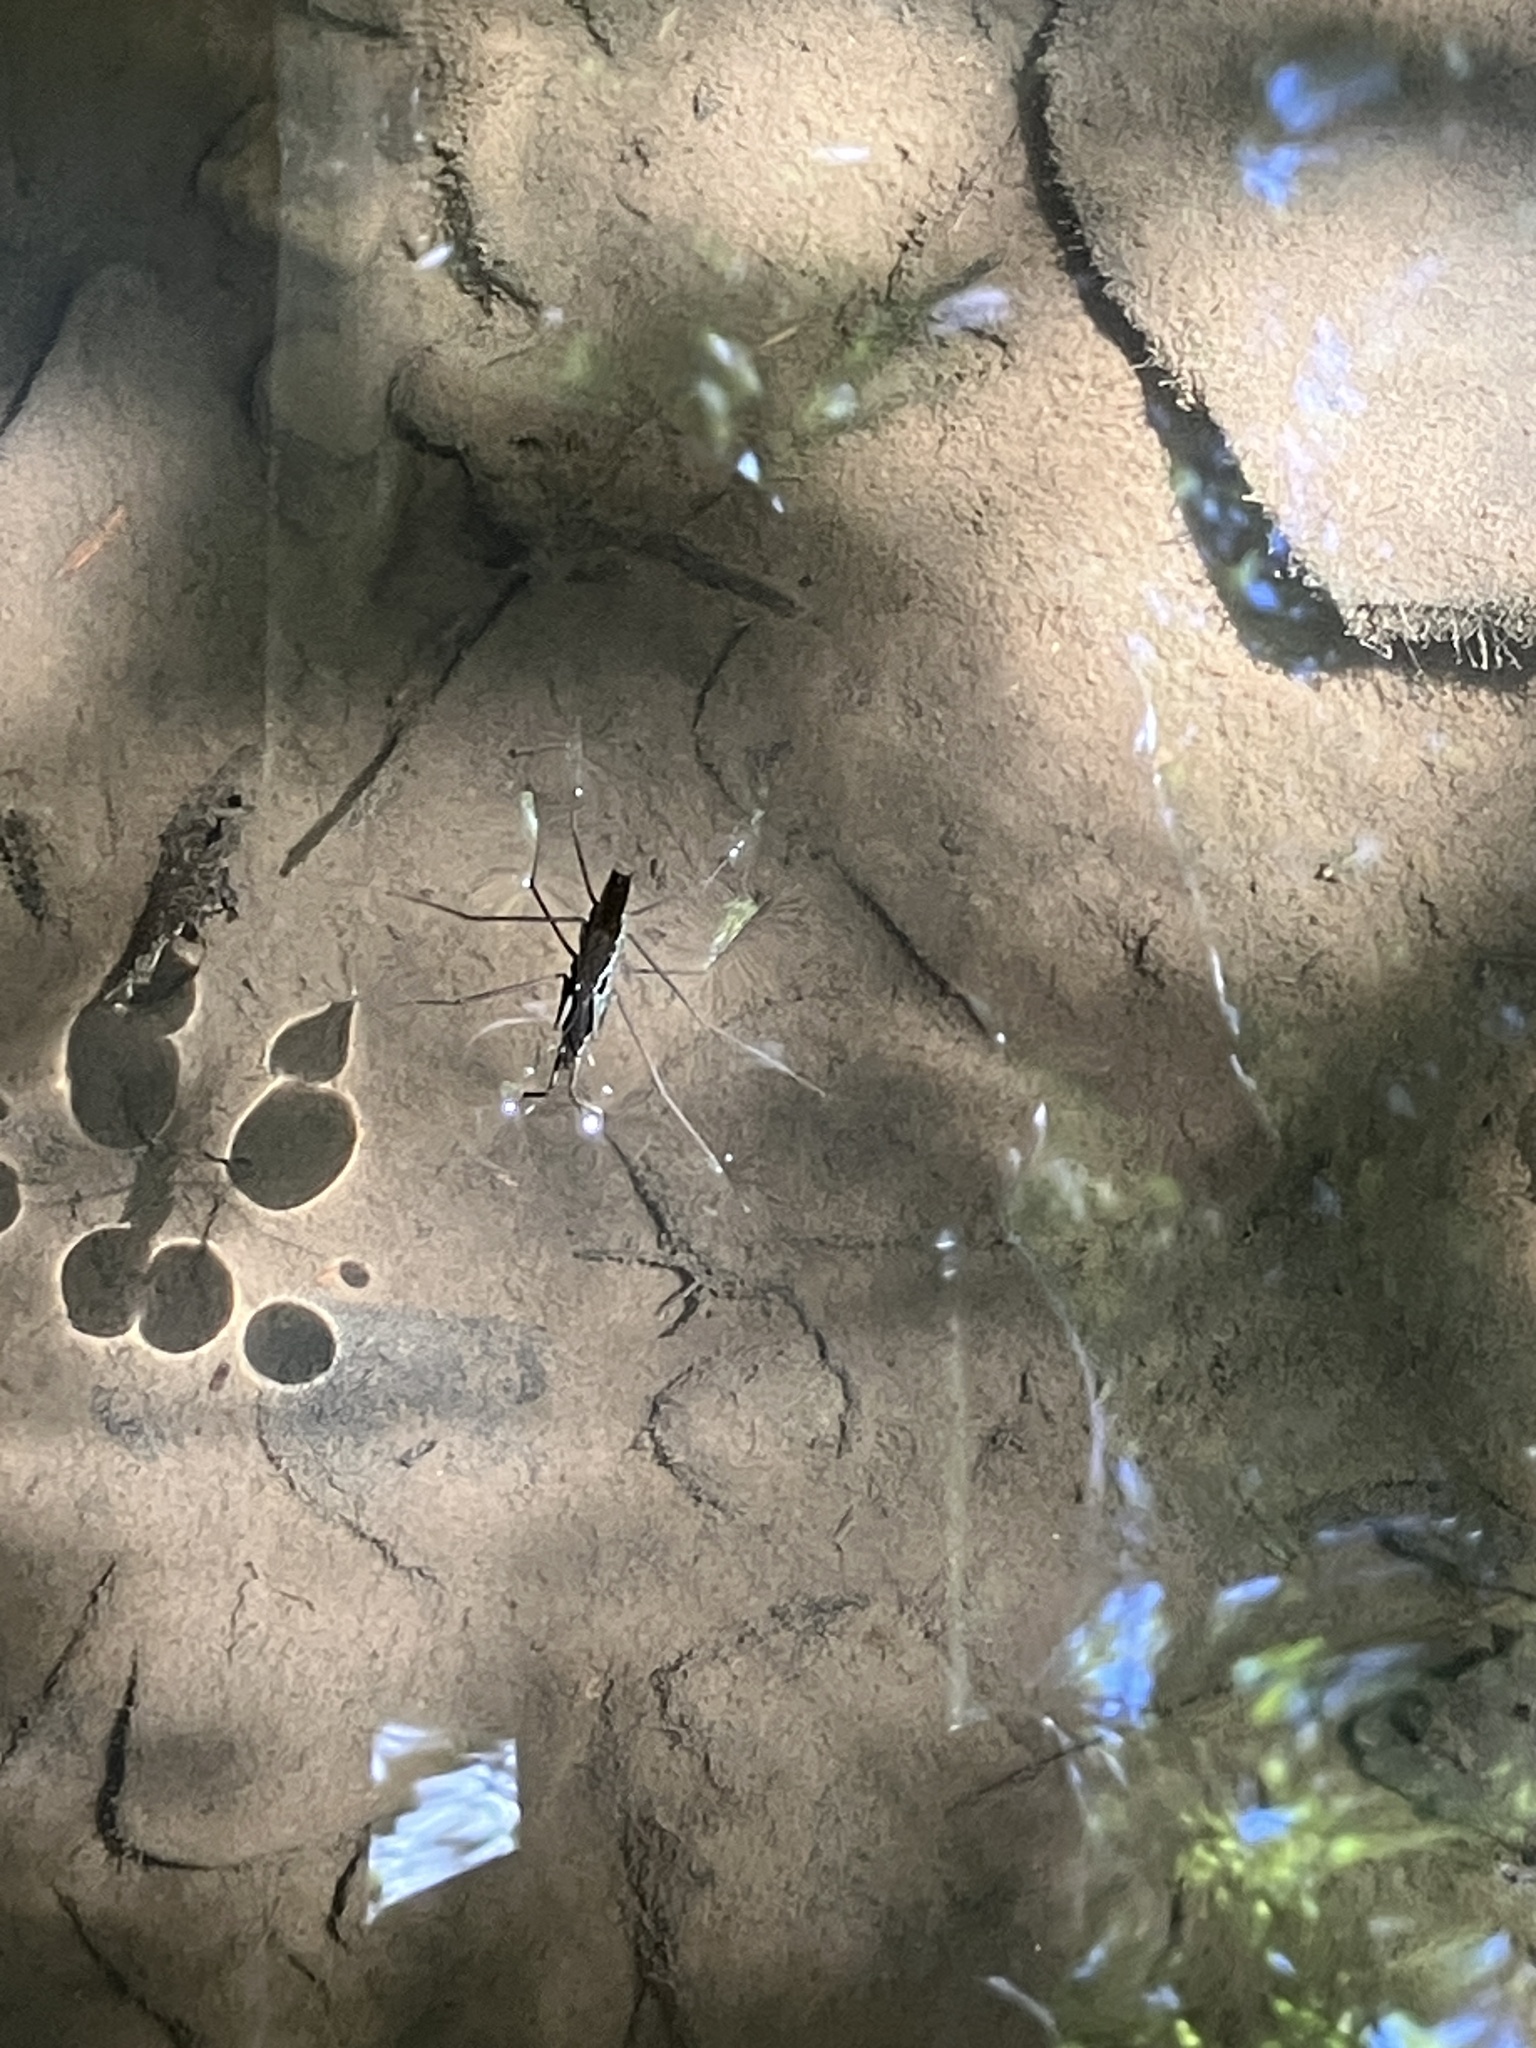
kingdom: Animalia
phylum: Arthropoda
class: Insecta
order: Hemiptera
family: Gerridae
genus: Aquarius
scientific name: Aquarius remigis
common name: Common water strider
